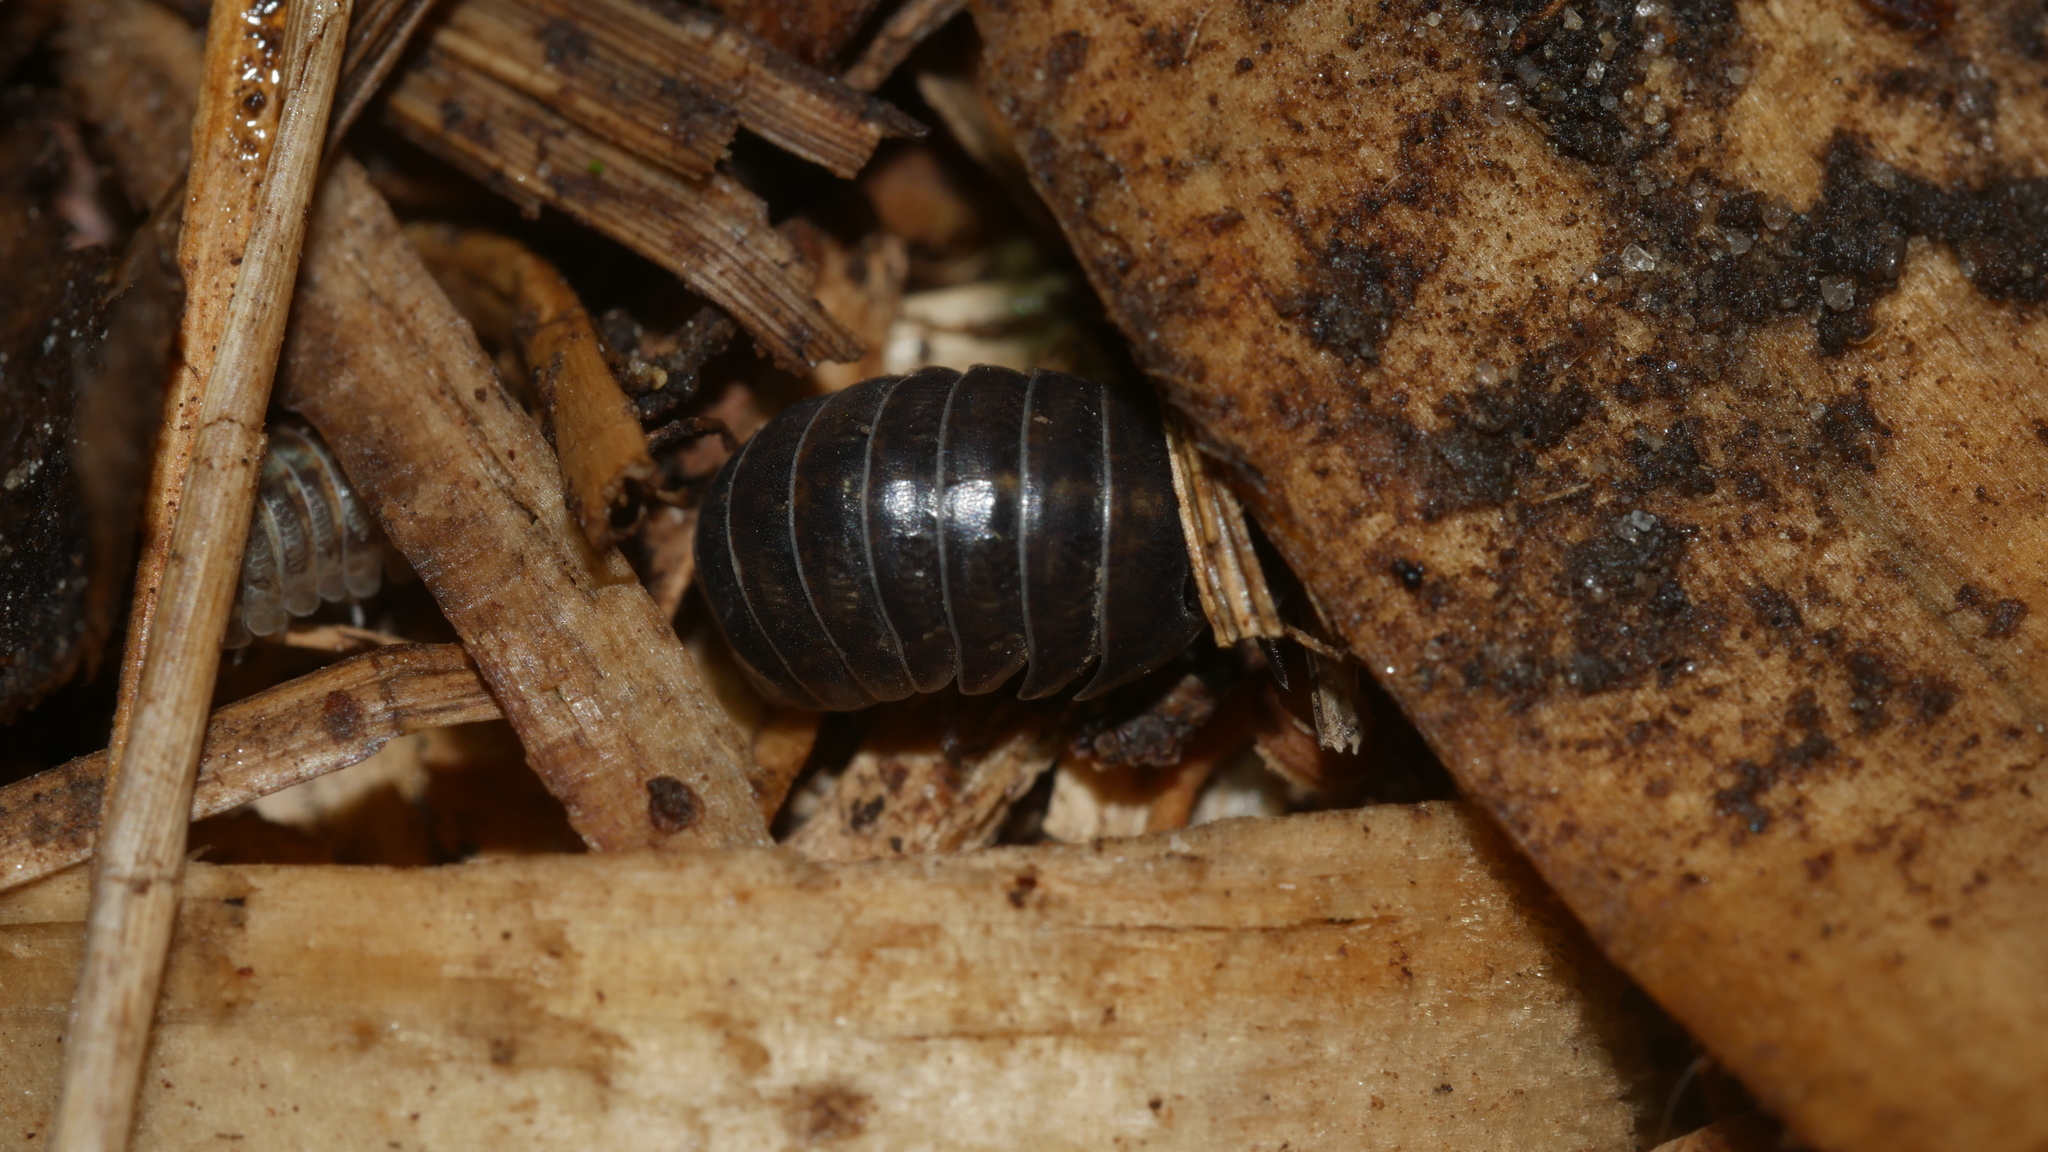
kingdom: Animalia
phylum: Arthropoda
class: Malacostraca
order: Isopoda
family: Armadillidiidae
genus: Armadillidium
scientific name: Armadillidium vulgare
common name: Common pill woodlouse
